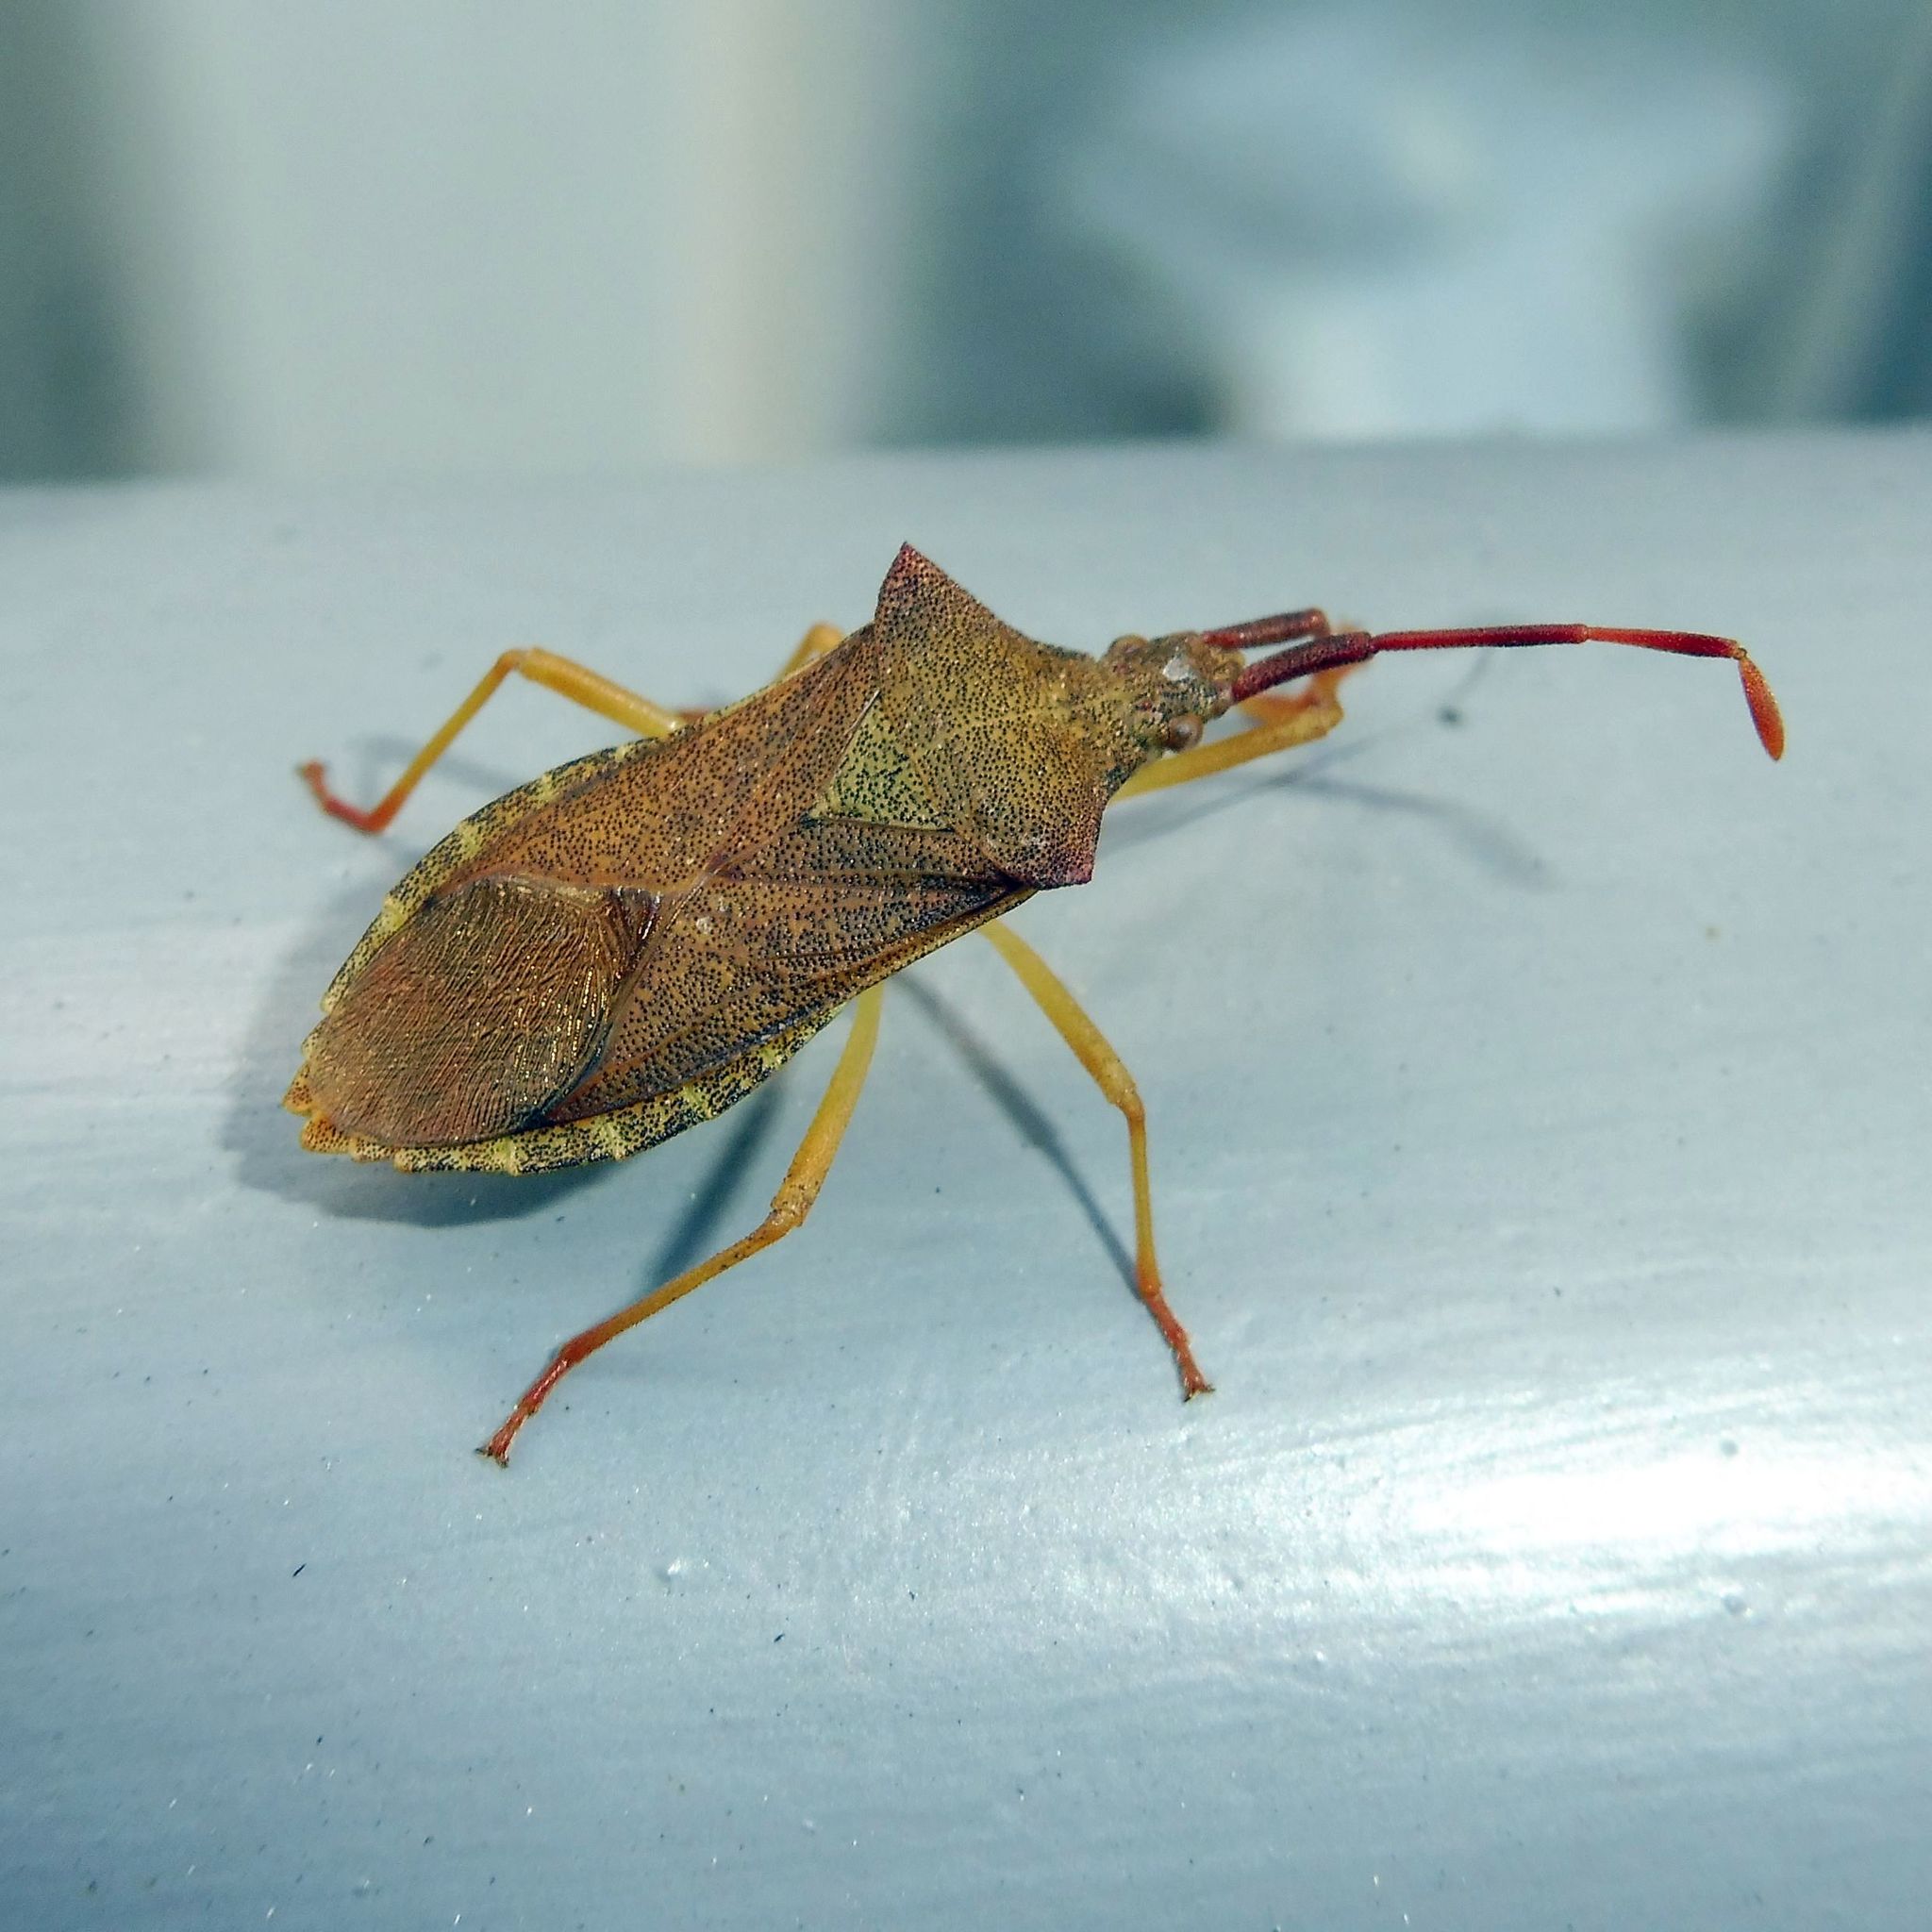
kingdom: Animalia
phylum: Arthropoda
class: Insecta
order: Hemiptera
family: Coreidae
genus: Gonocerus
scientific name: Gonocerus acuteangulatus
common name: Box bug
